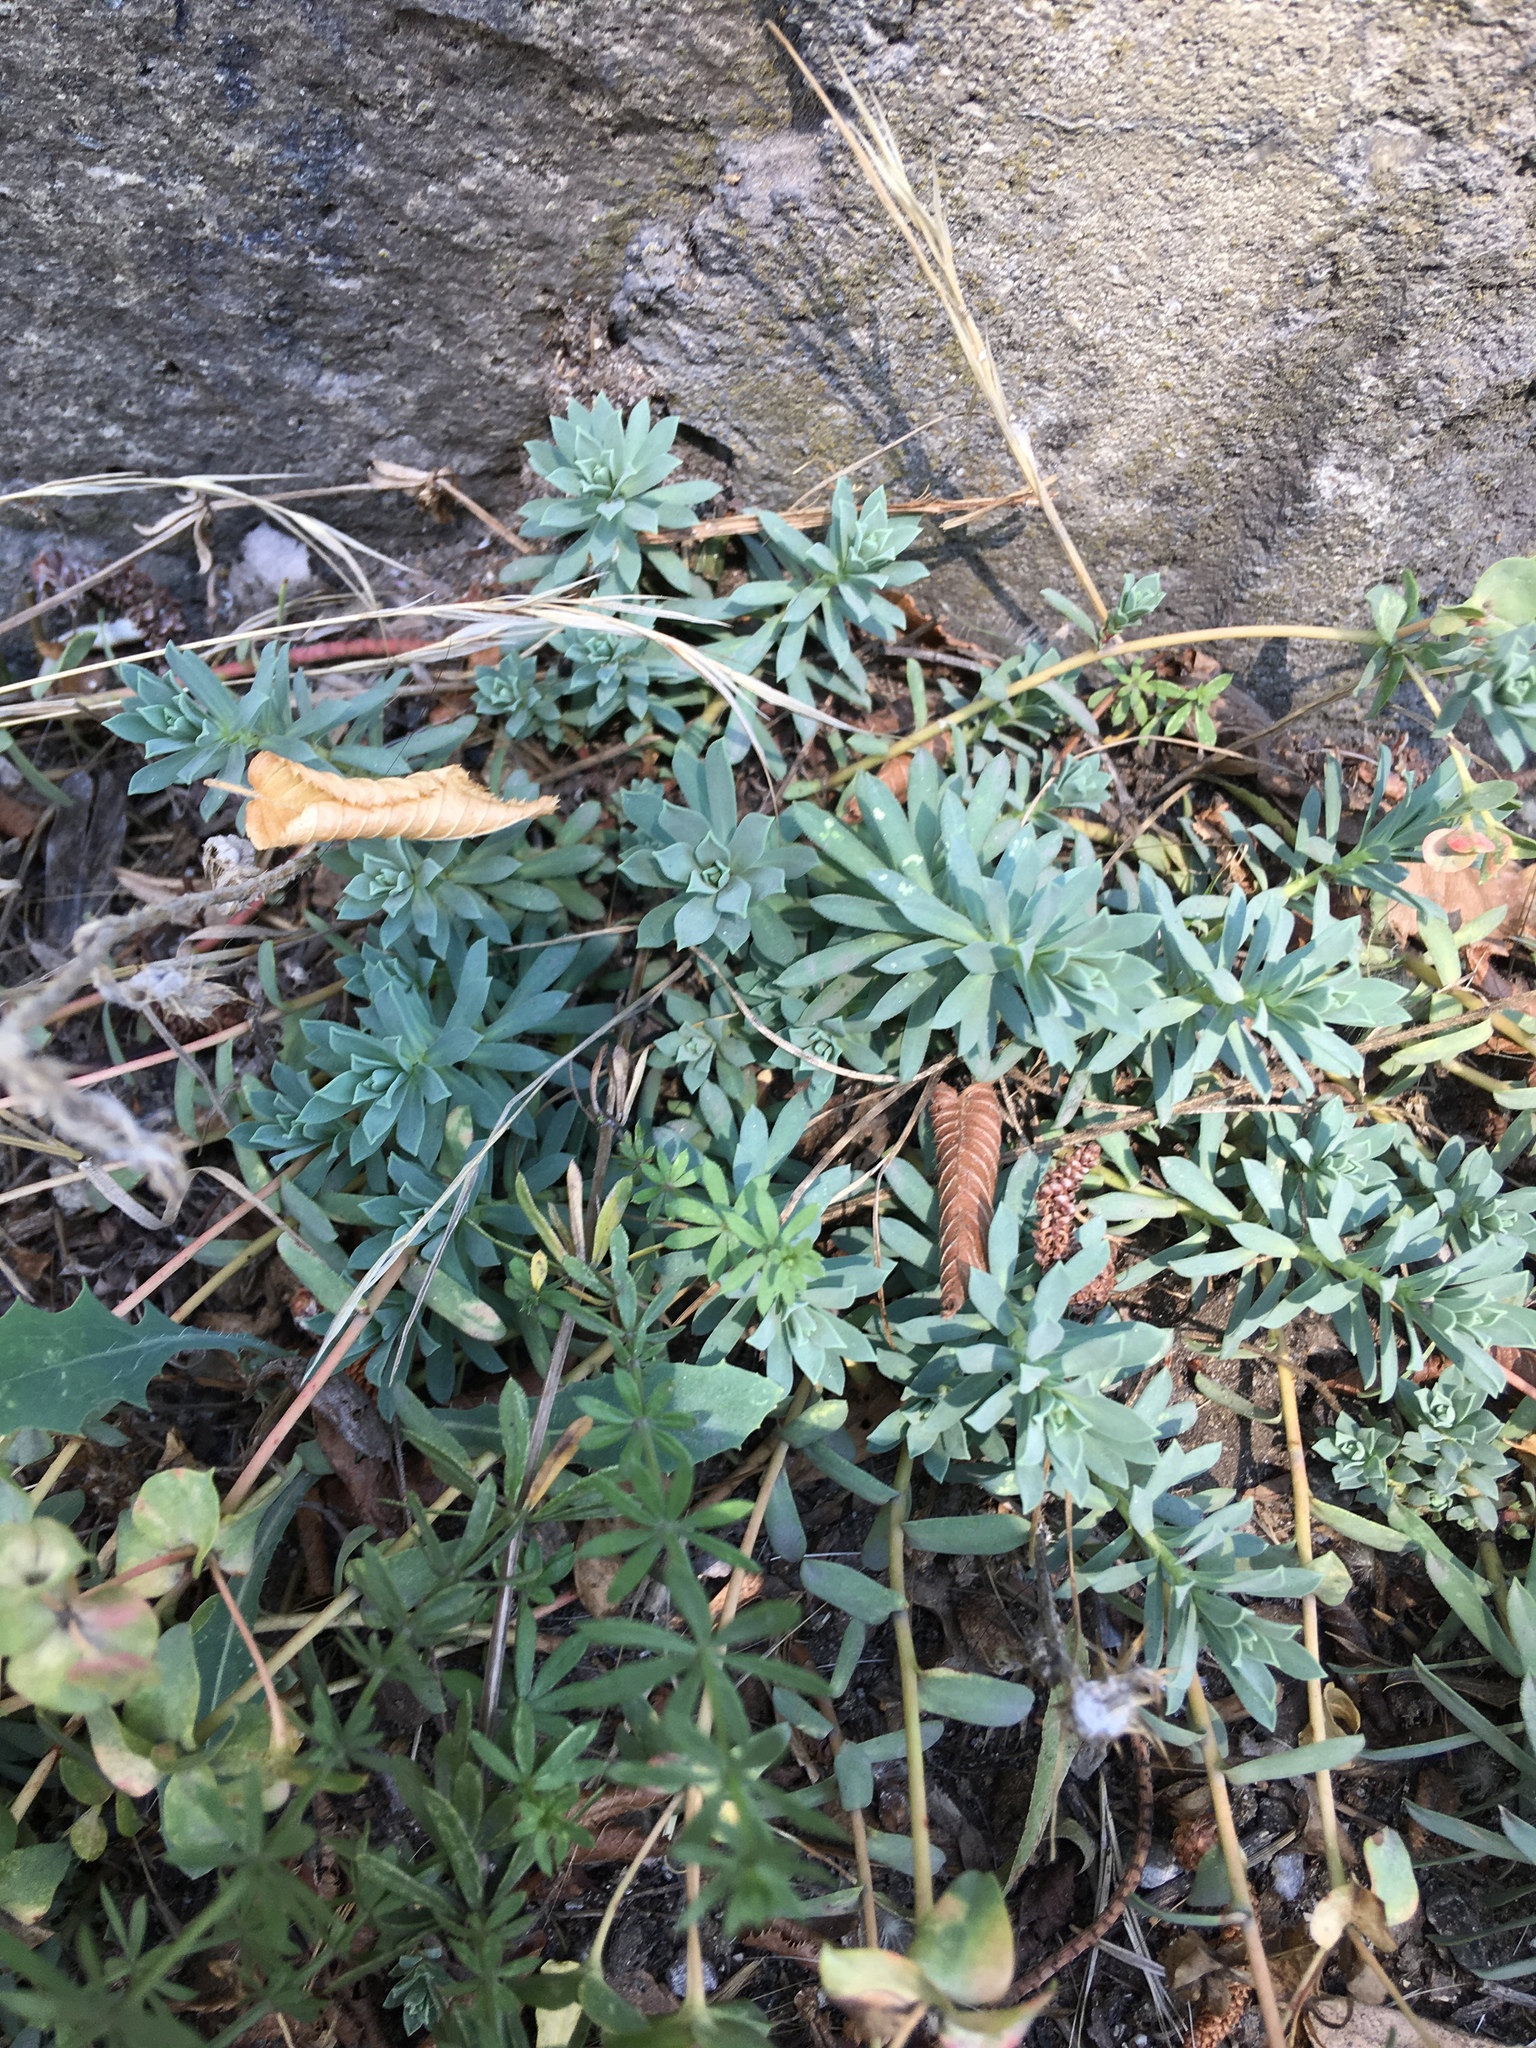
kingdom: Plantae
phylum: Tracheophyta
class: Magnoliopsida
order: Malpighiales
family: Euphorbiaceae
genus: Euphorbia
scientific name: Euphorbia petrophila
